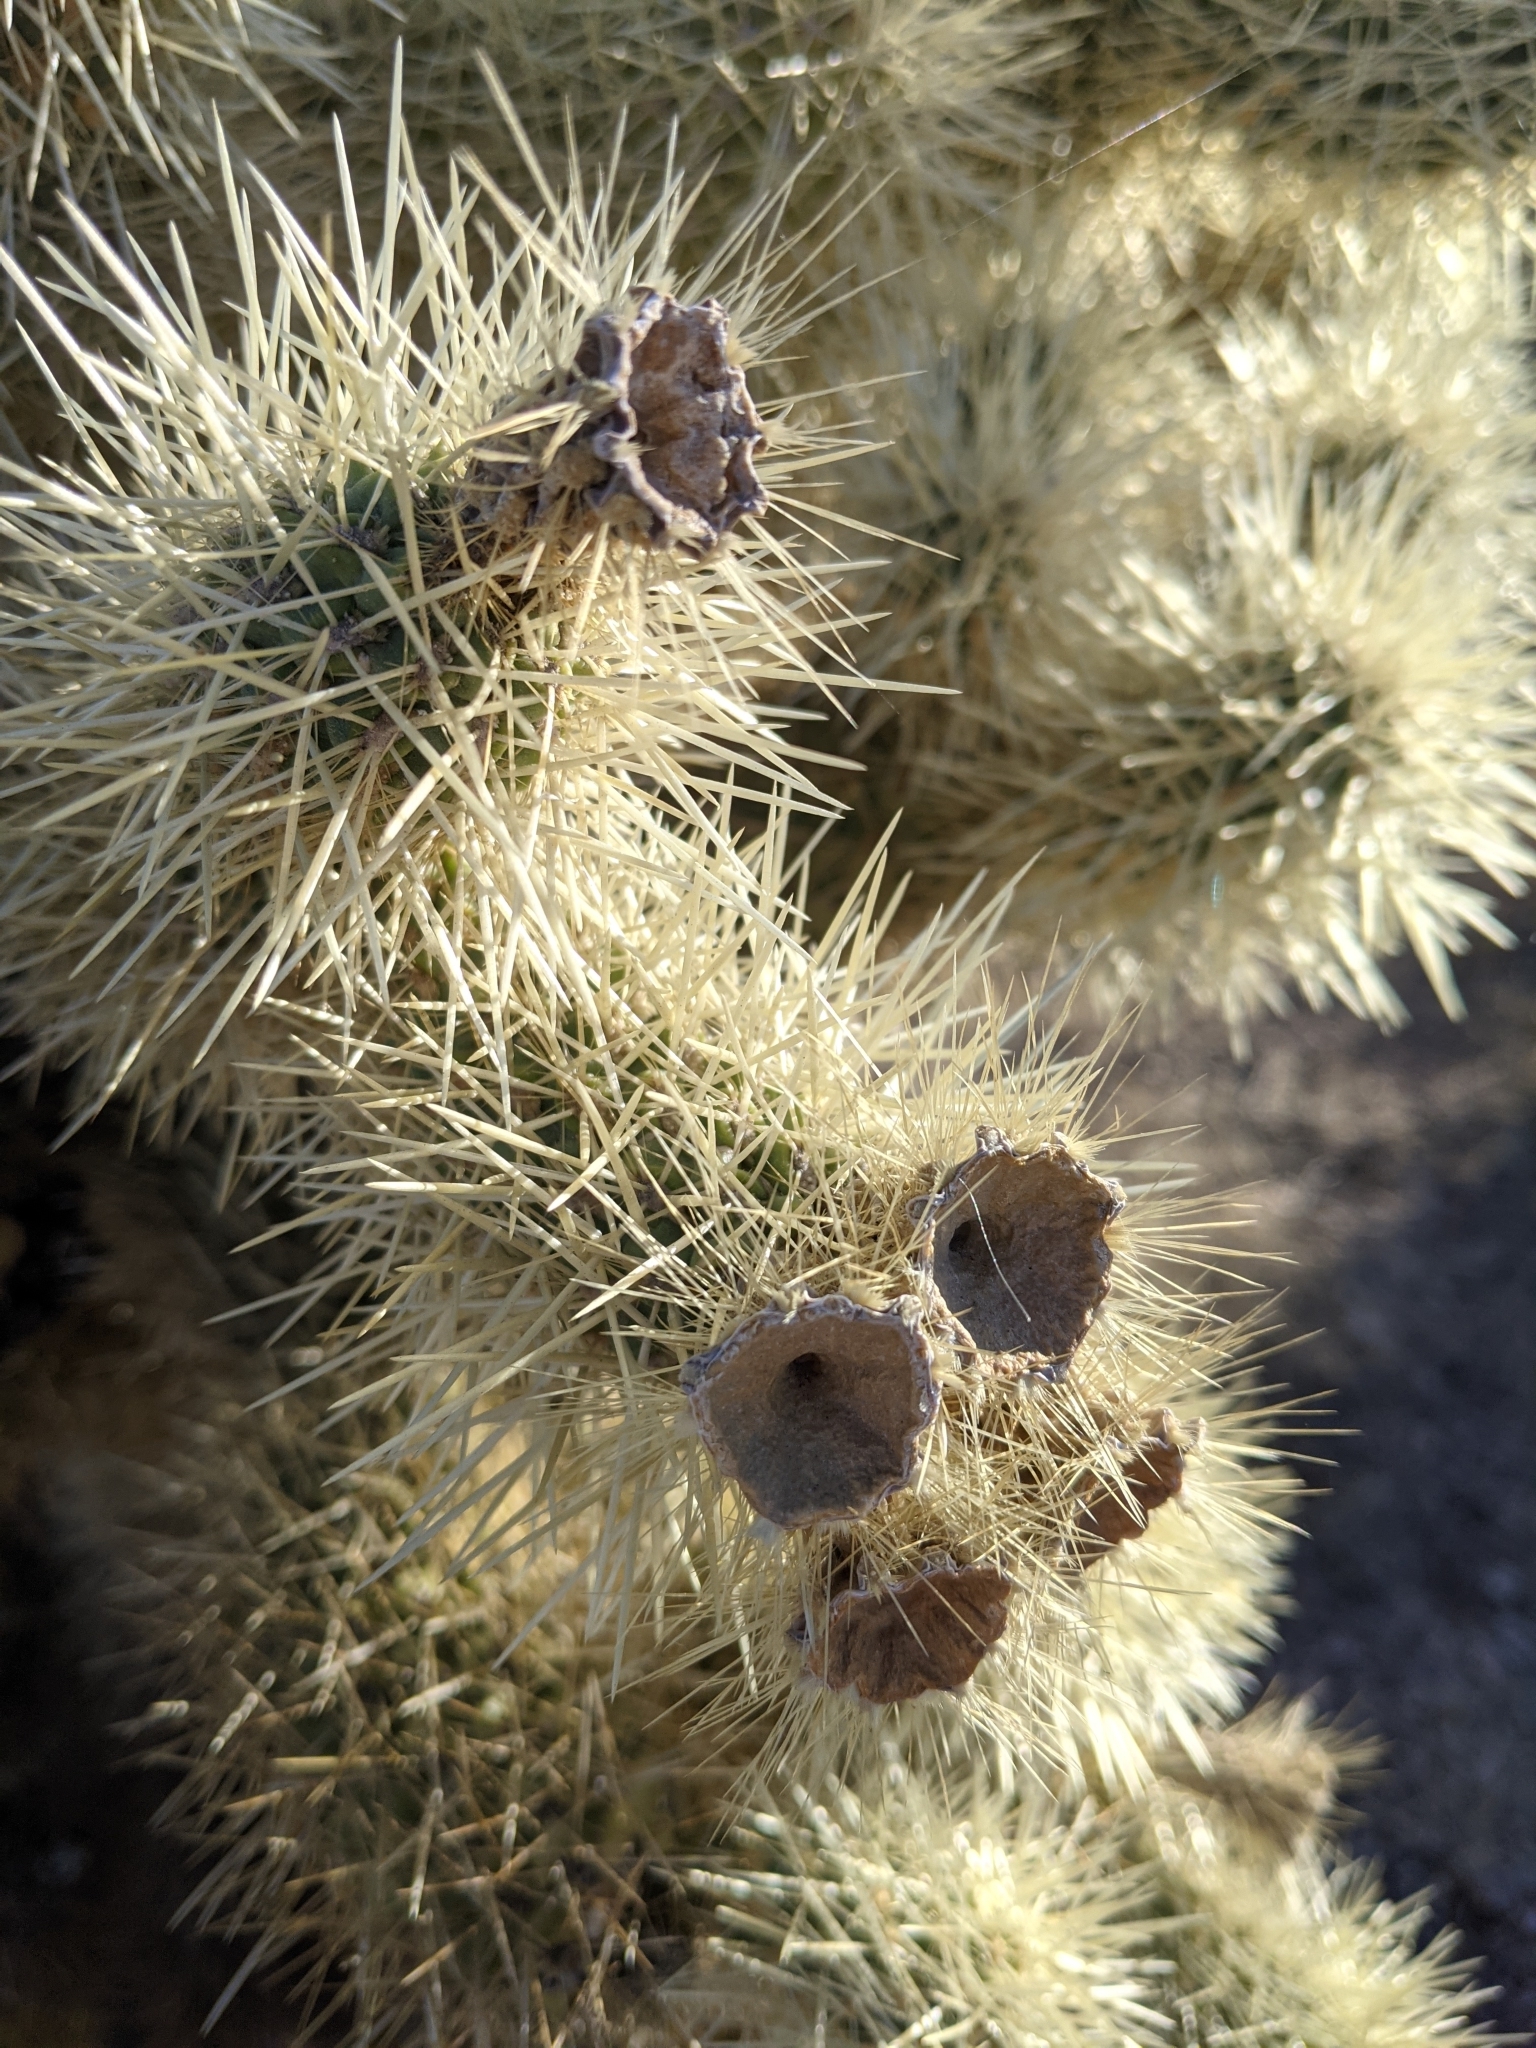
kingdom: Plantae
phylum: Tracheophyta
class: Magnoliopsida
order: Caryophyllales
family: Cactaceae
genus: Cylindropuntia
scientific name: Cylindropuntia fosbergii
